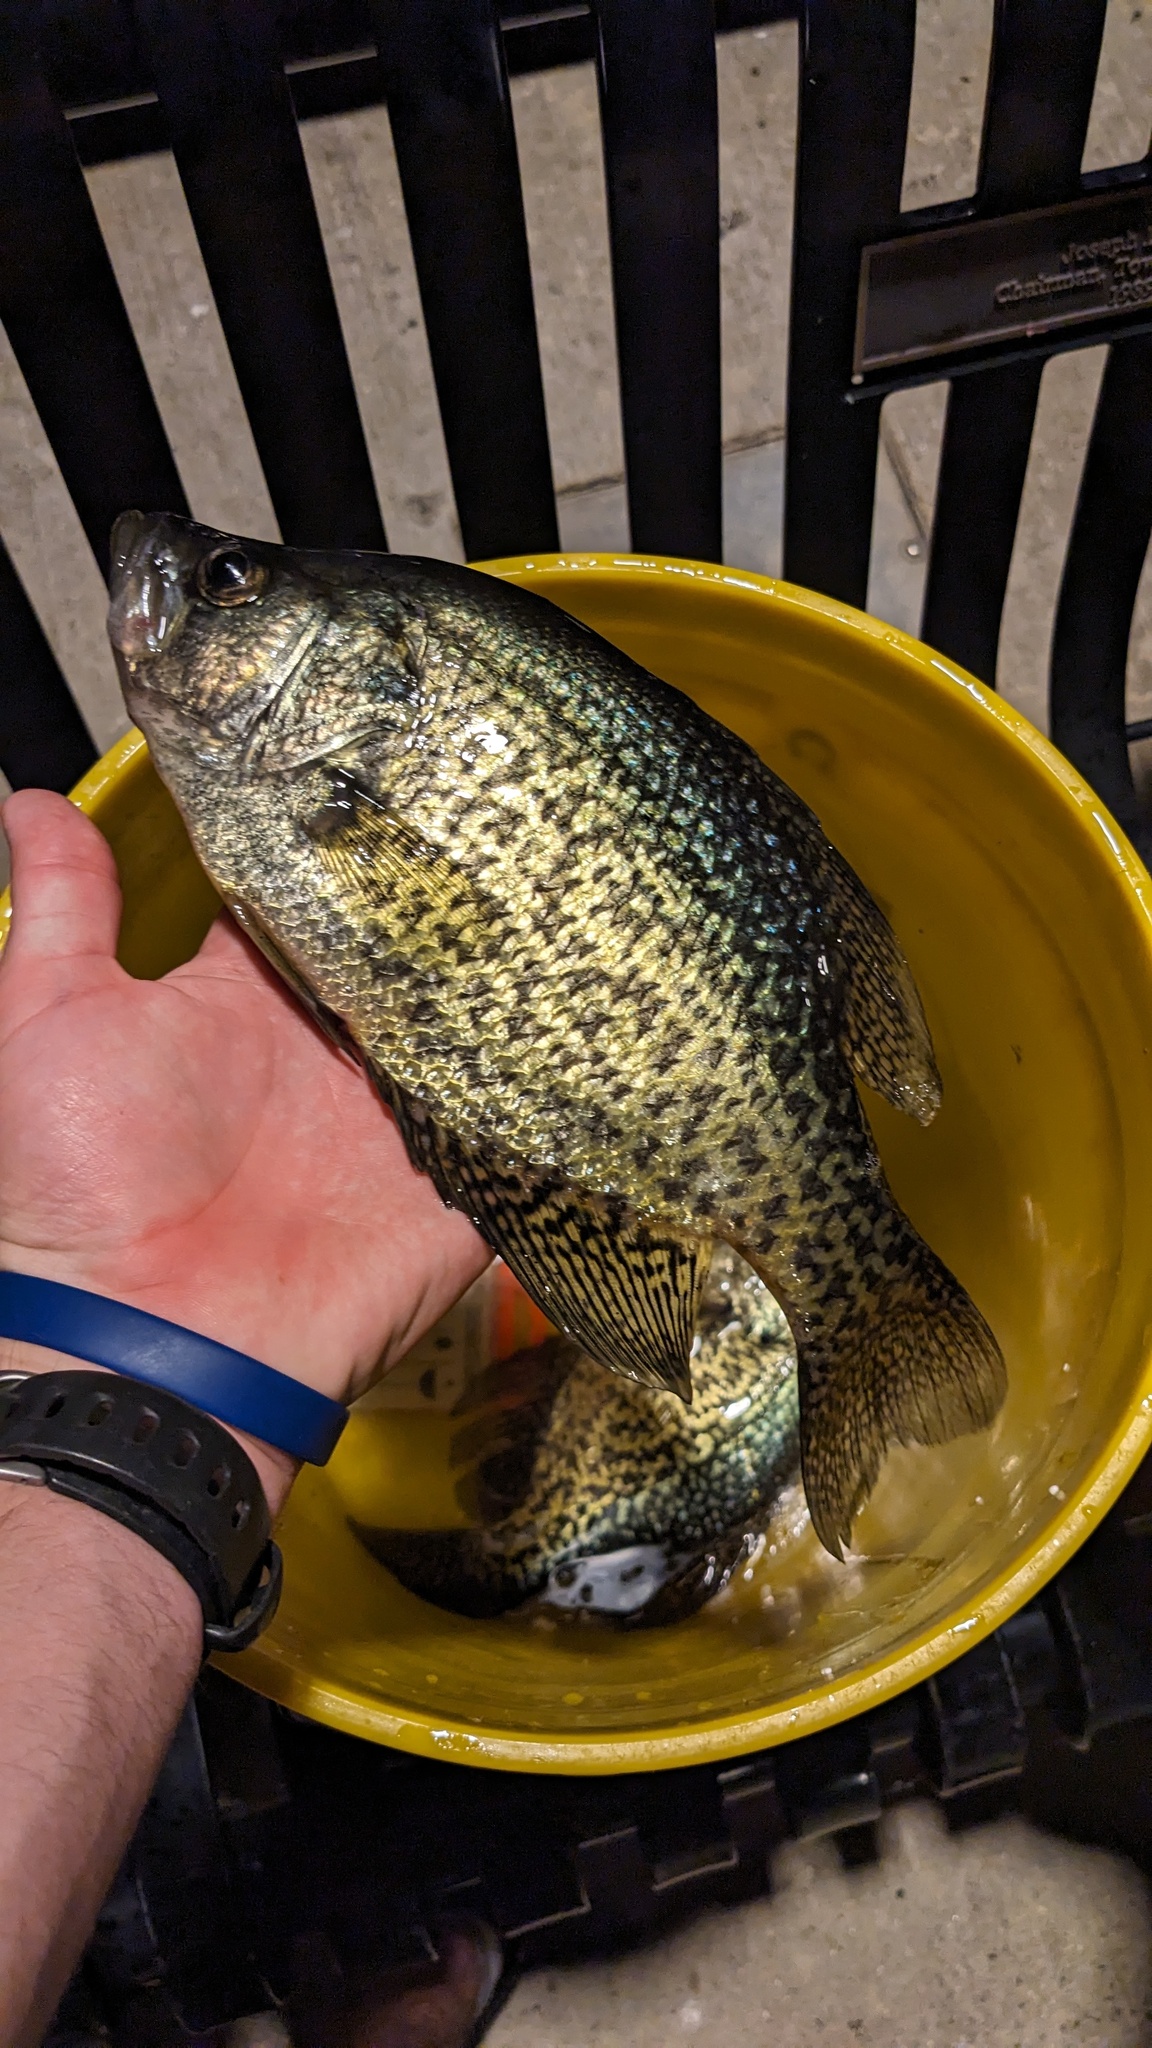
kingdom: Animalia
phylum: Chordata
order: Perciformes
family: Centrarchidae
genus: Pomoxis
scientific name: Pomoxis nigromaculatus
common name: Black crappie
